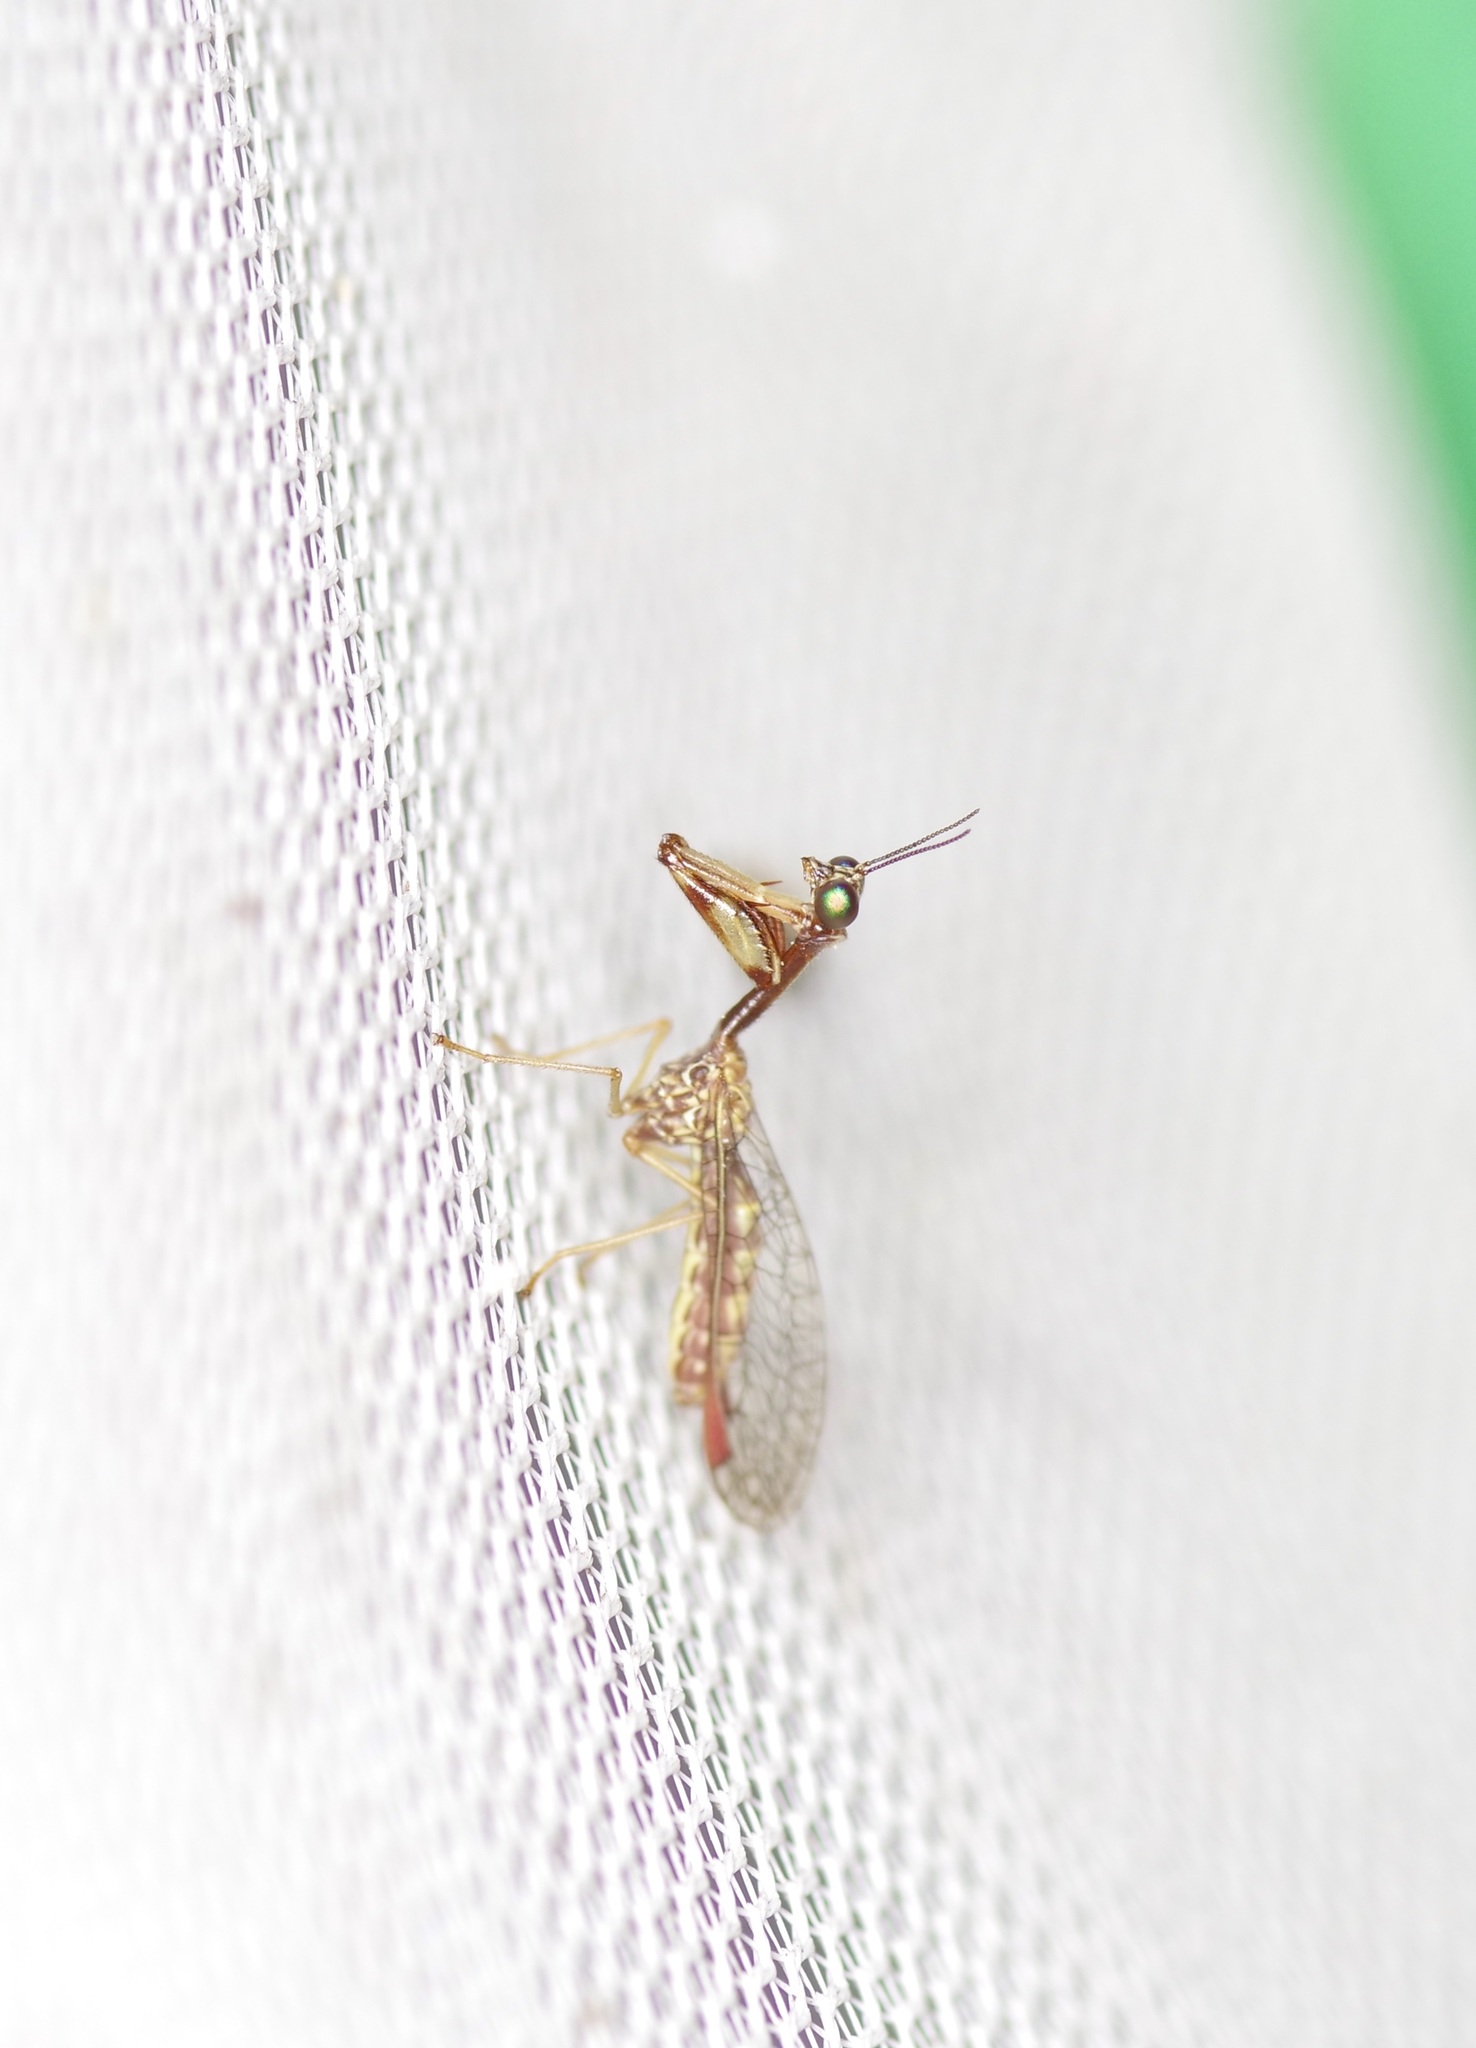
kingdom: Animalia
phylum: Arthropoda
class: Insecta
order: Neuroptera
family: Mantispidae
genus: Leptomantispa
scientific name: Leptomantispa pulchella
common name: Stevens's mantidfly
